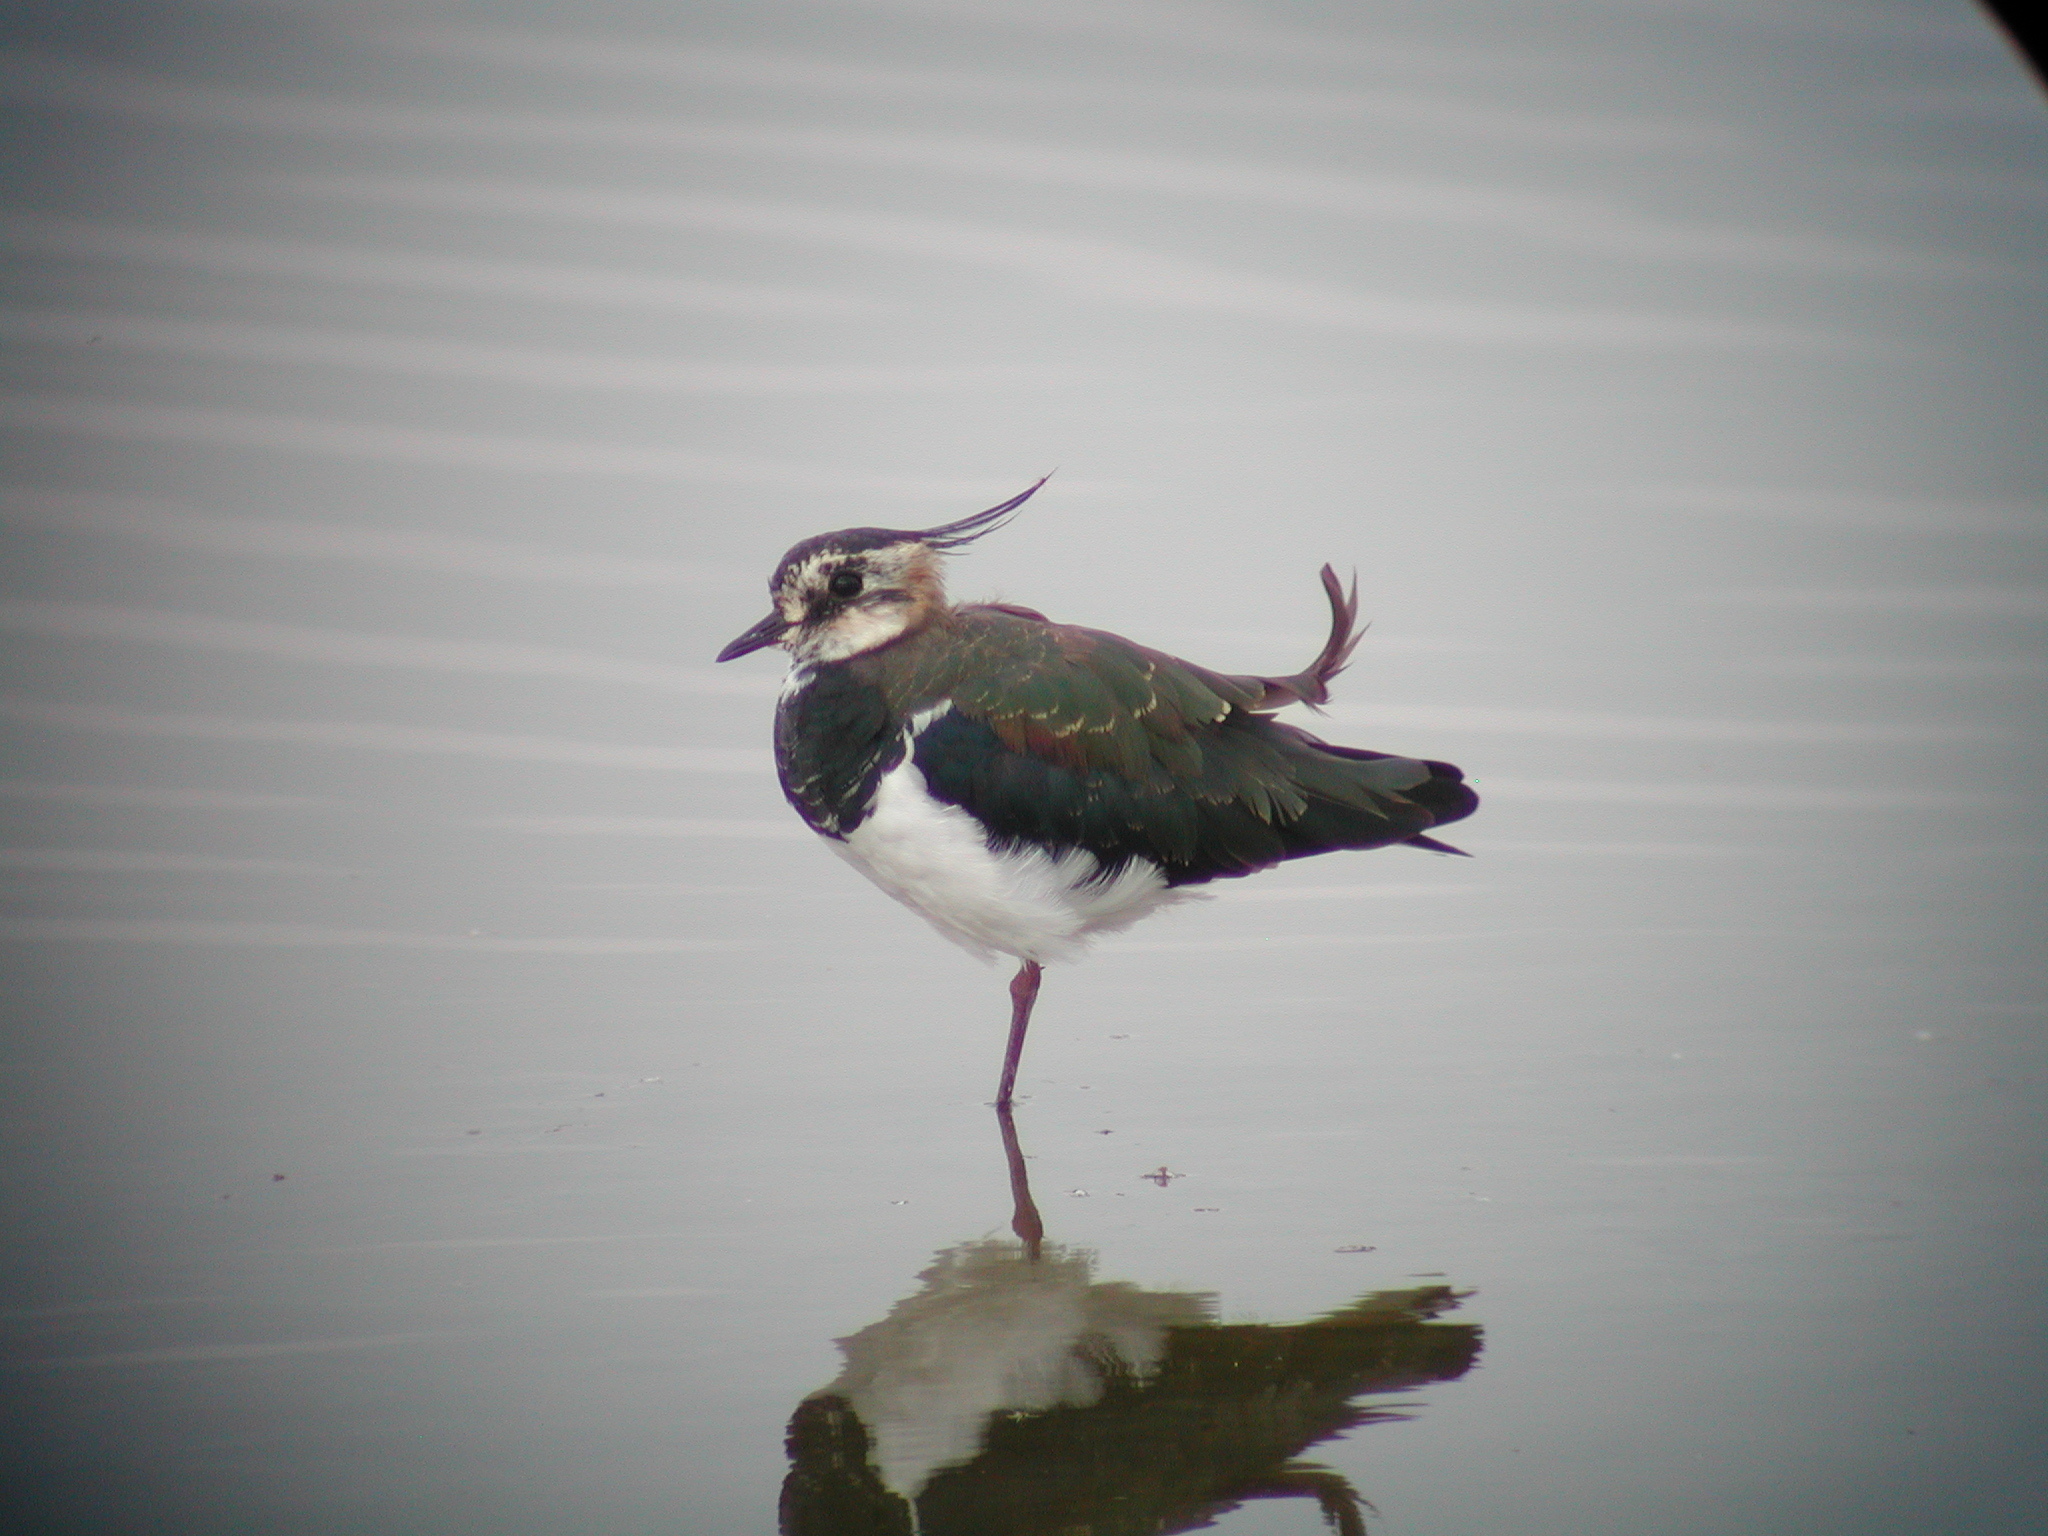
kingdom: Animalia
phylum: Chordata
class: Aves
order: Charadriiformes
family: Charadriidae
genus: Vanellus
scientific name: Vanellus vanellus
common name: Northern lapwing
